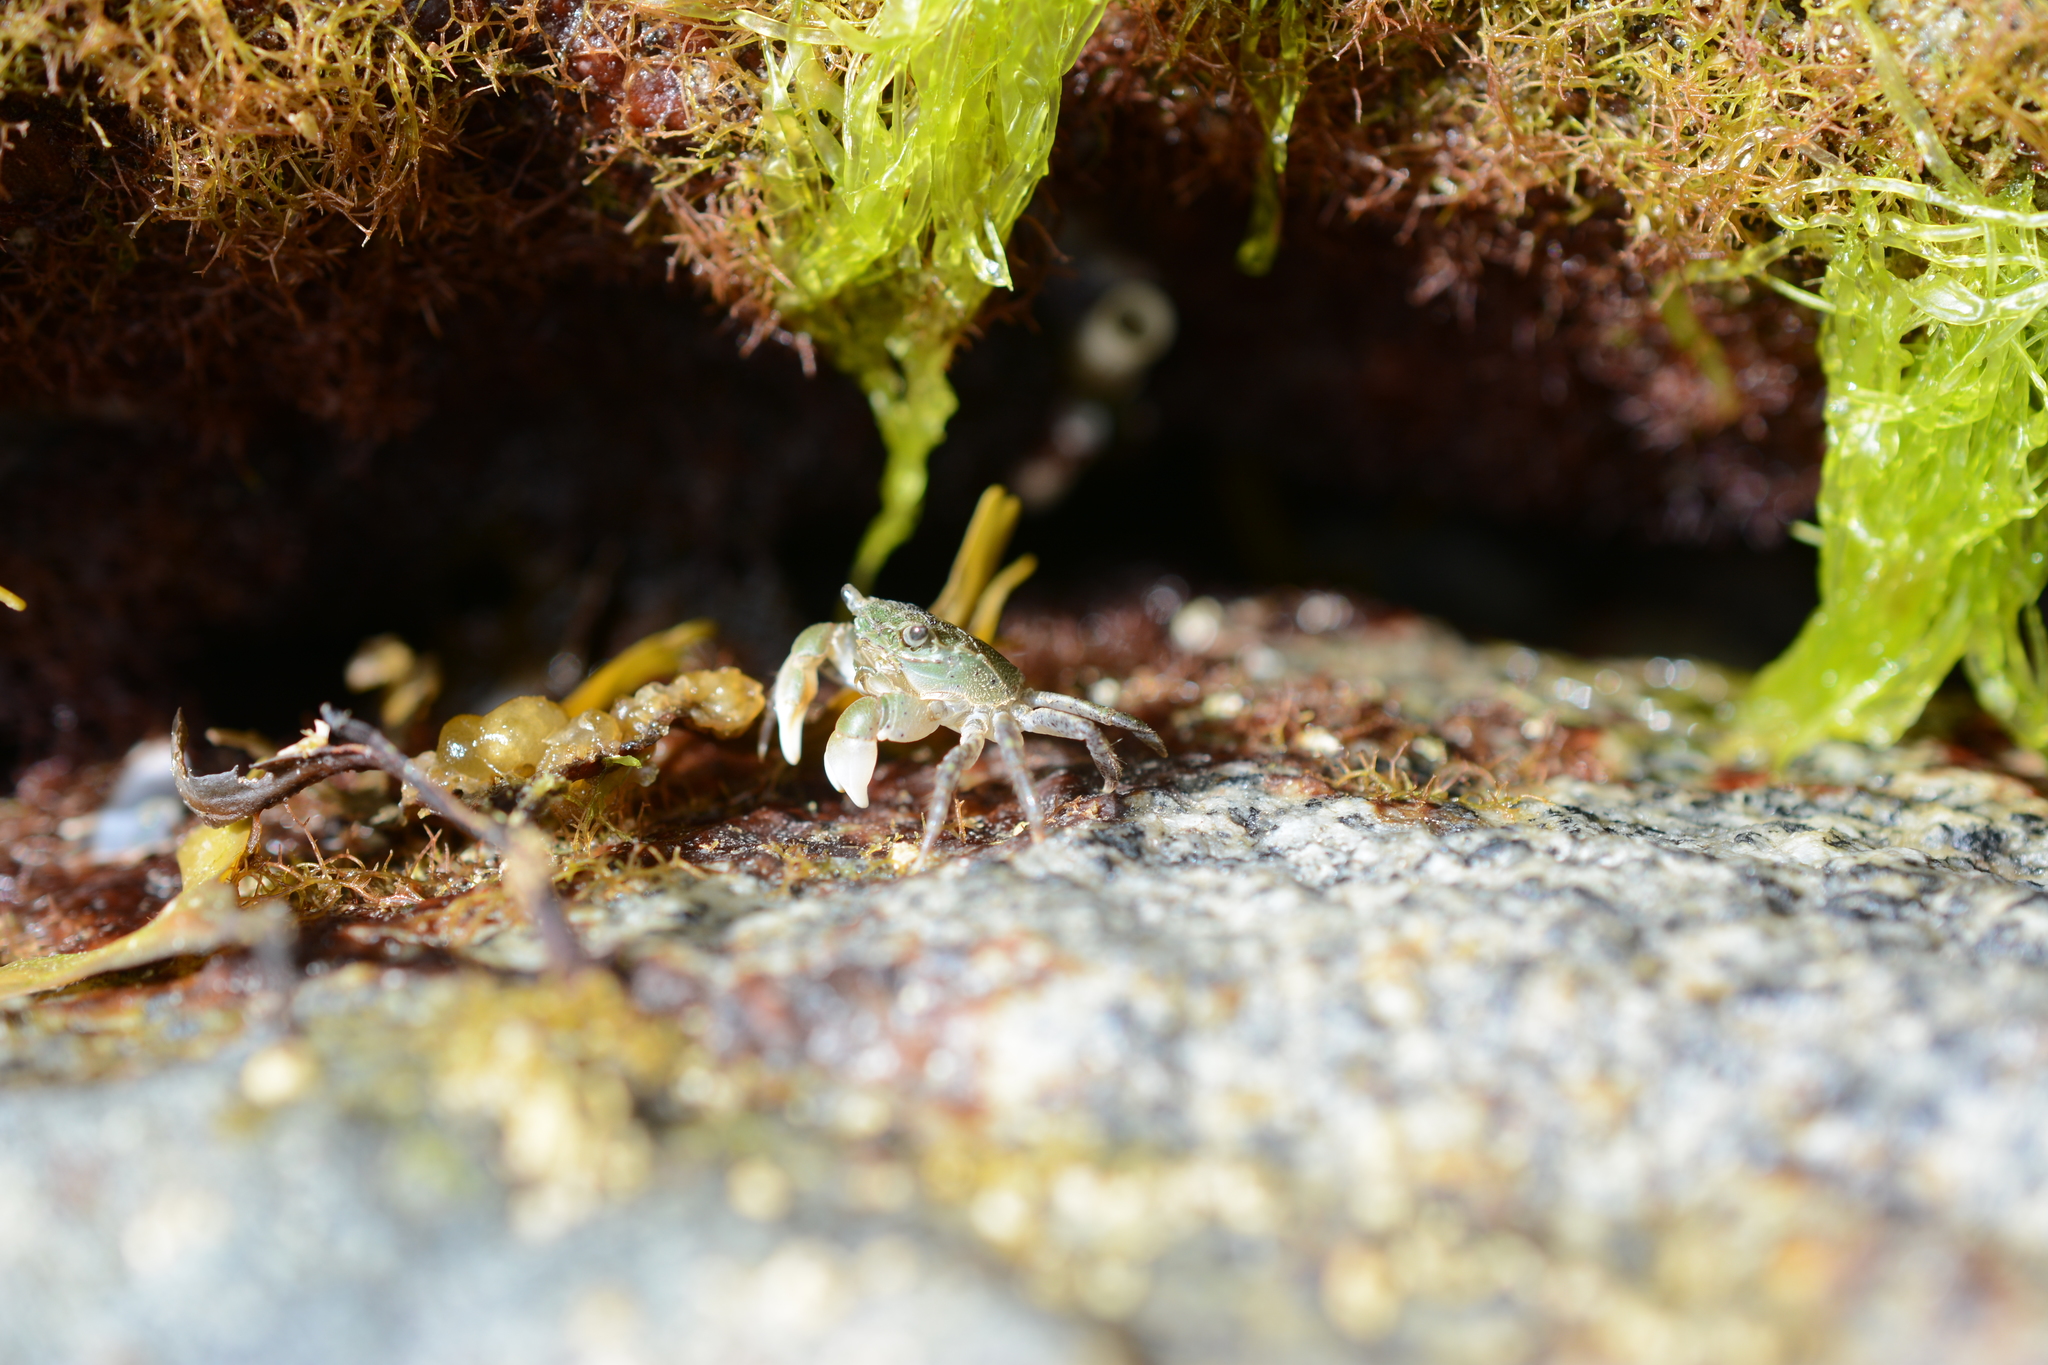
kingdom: Animalia
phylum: Arthropoda
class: Malacostraca
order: Decapoda
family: Varunidae
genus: Hemigrapsus
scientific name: Hemigrapsus oregonensis
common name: Yellow shore crab
